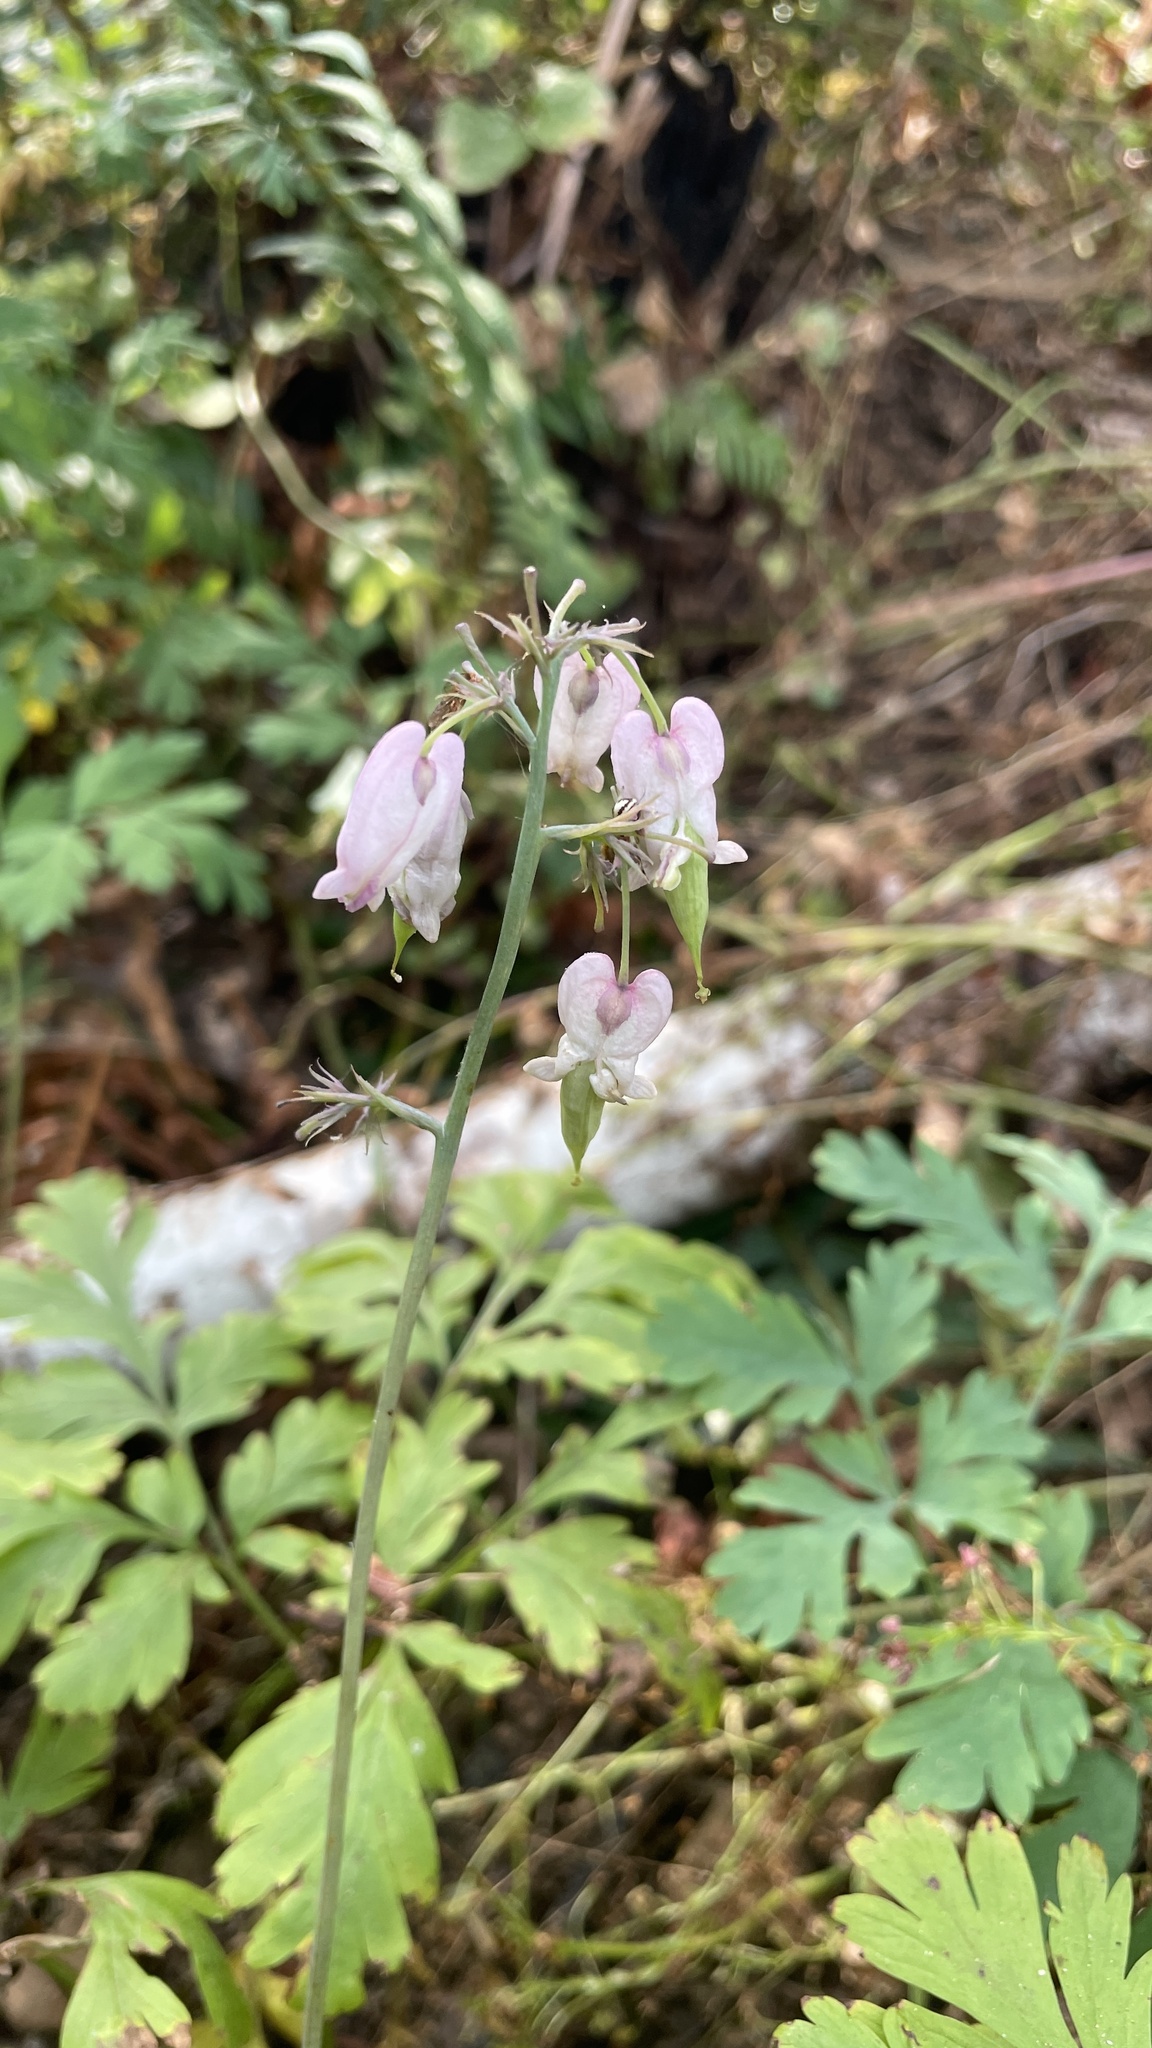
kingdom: Plantae
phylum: Tracheophyta
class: Magnoliopsida
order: Ranunculales
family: Papaveraceae
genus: Dicentra
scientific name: Dicentra formosa
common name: Bleeding-heart
